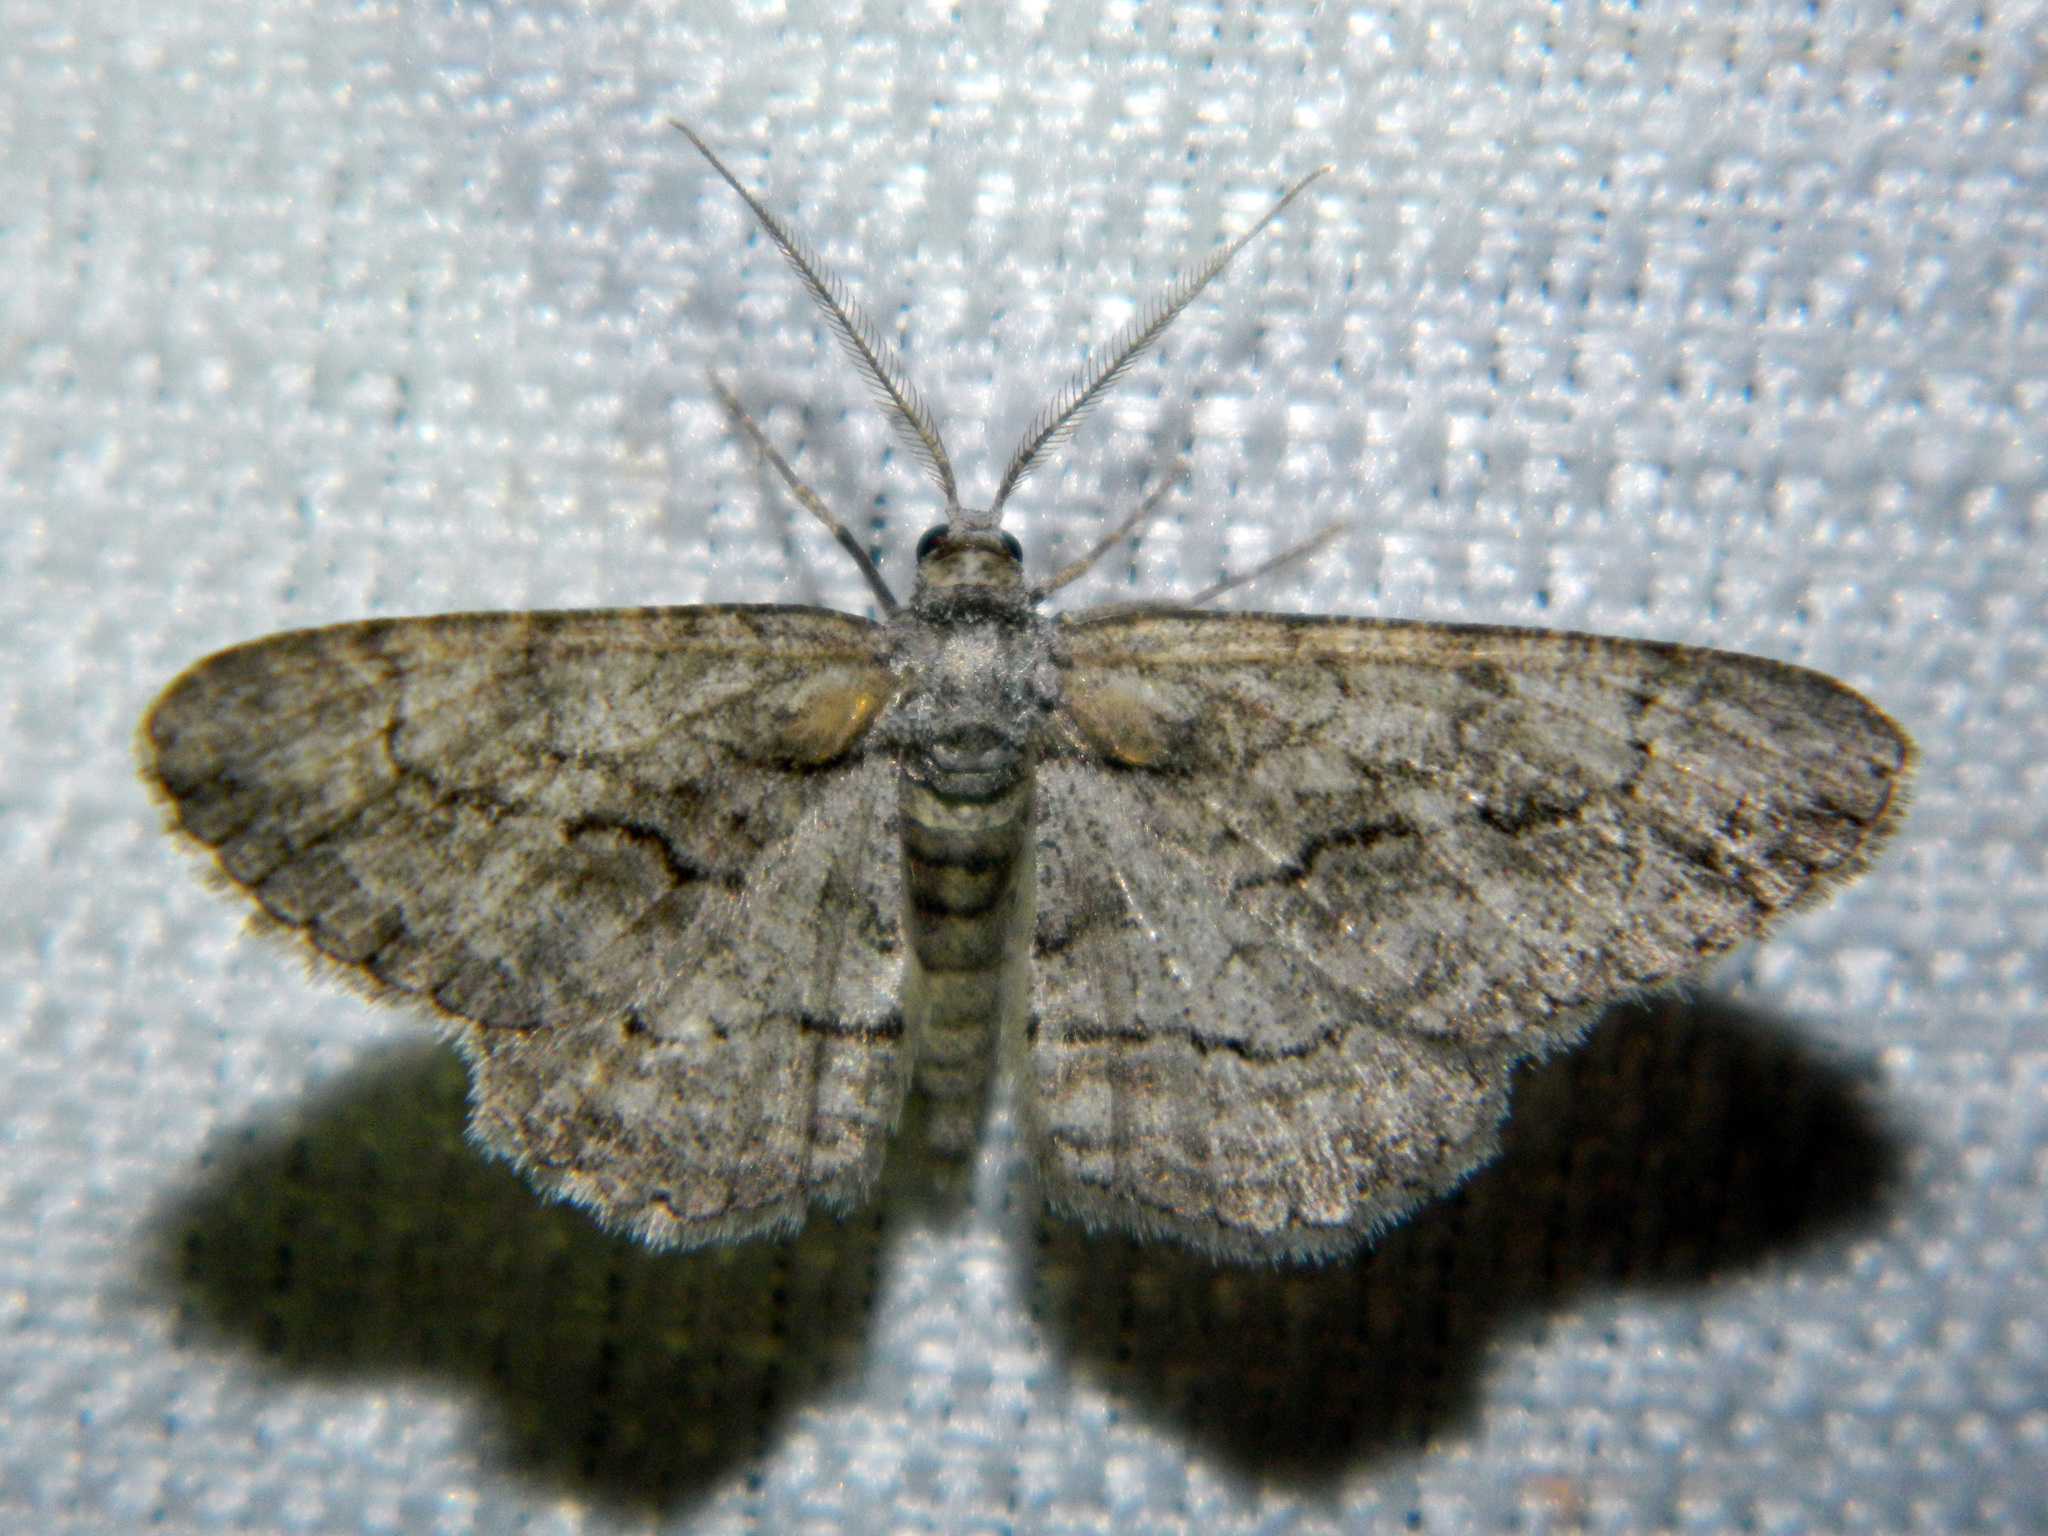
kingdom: Animalia
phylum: Arthropoda
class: Insecta
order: Lepidoptera
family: Geometridae
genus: Anavitrinella
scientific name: Anavitrinella pampinaria
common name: Common gray
